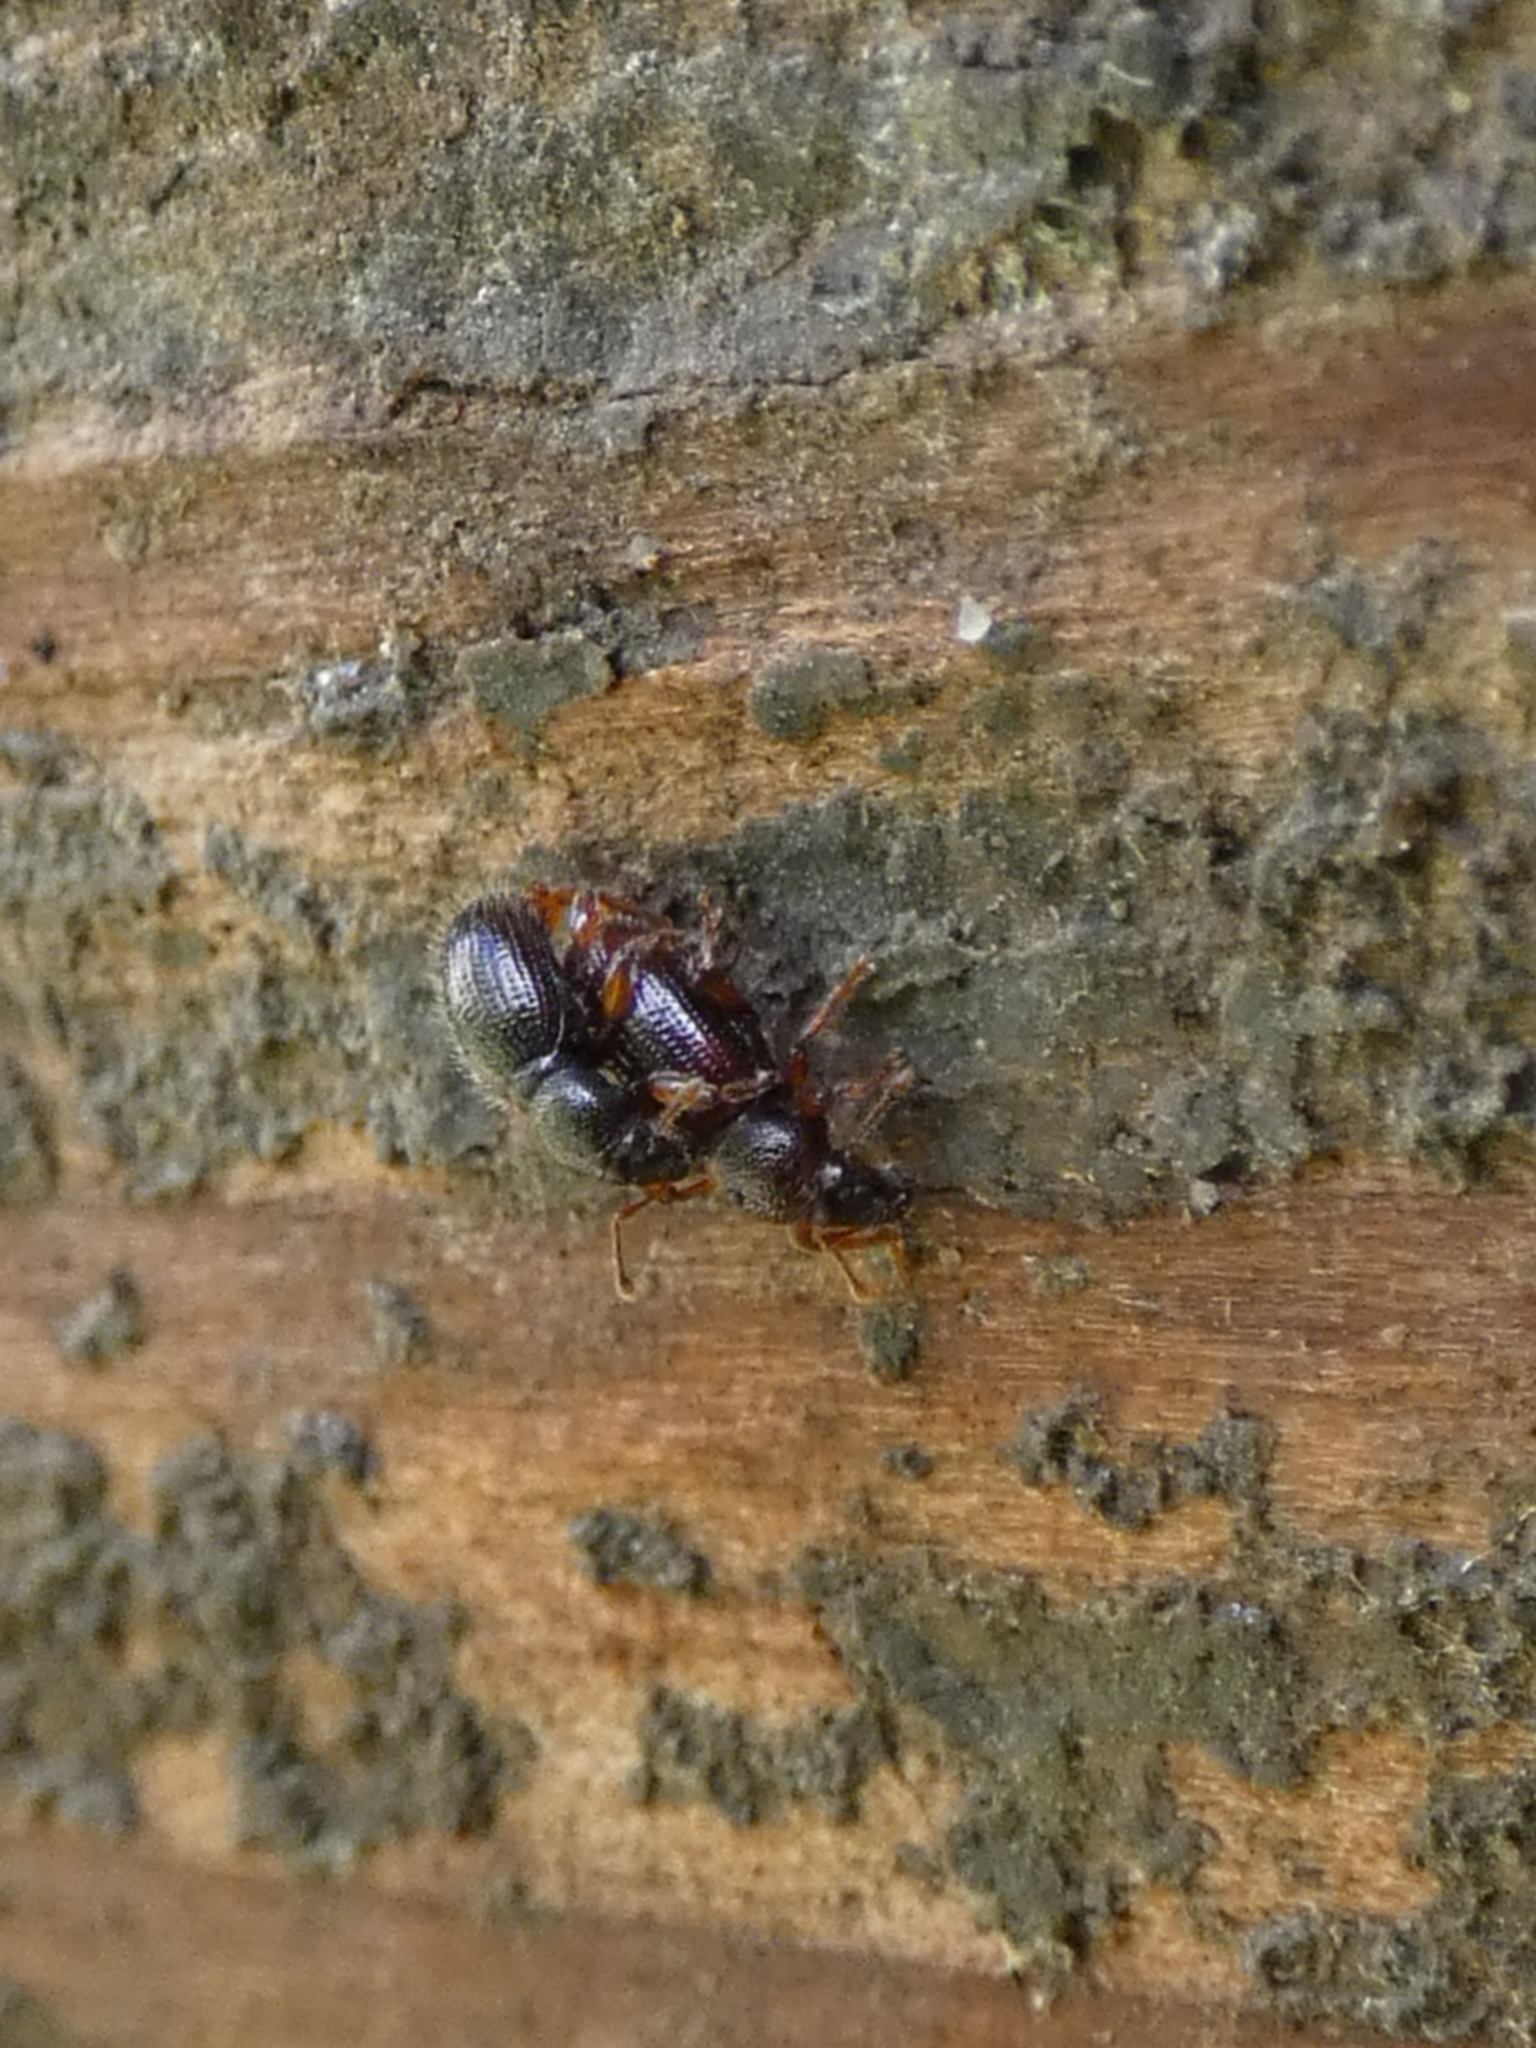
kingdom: Animalia
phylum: Arthropoda
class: Insecta
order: Coleoptera
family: Curculionidae
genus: Exomias
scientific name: Exomias pellucidus
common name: Hairy spider weevil
